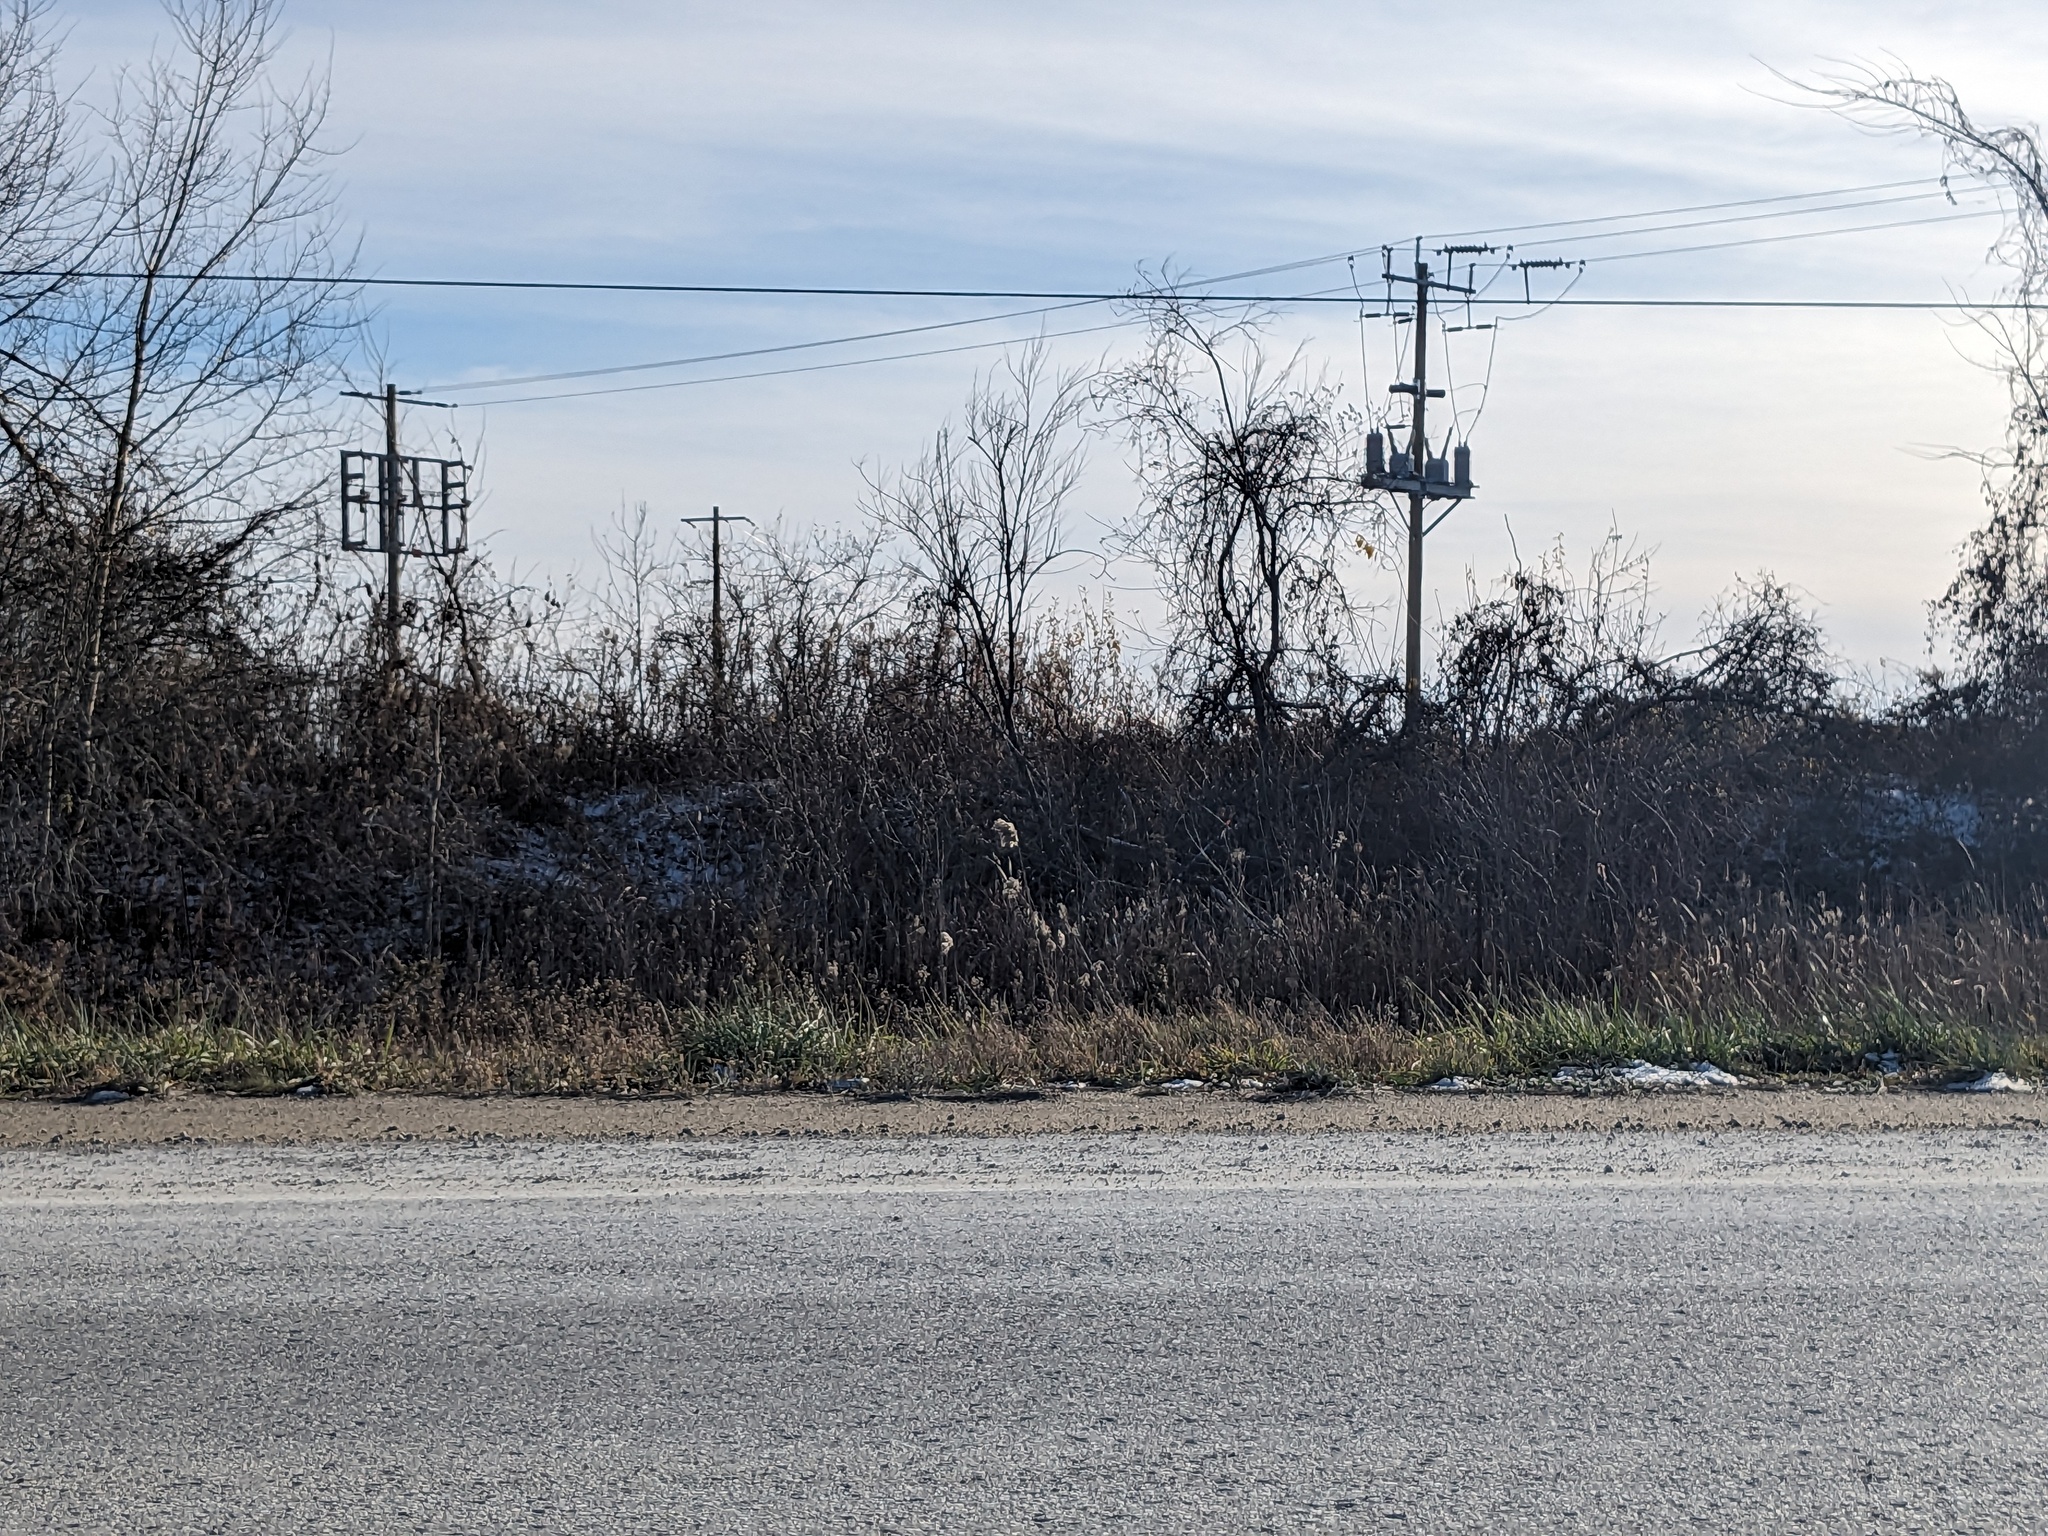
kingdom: Plantae
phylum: Tracheophyta
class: Liliopsida
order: Poales
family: Poaceae
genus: Phragmites
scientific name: Phragmites australis
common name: Common reed
